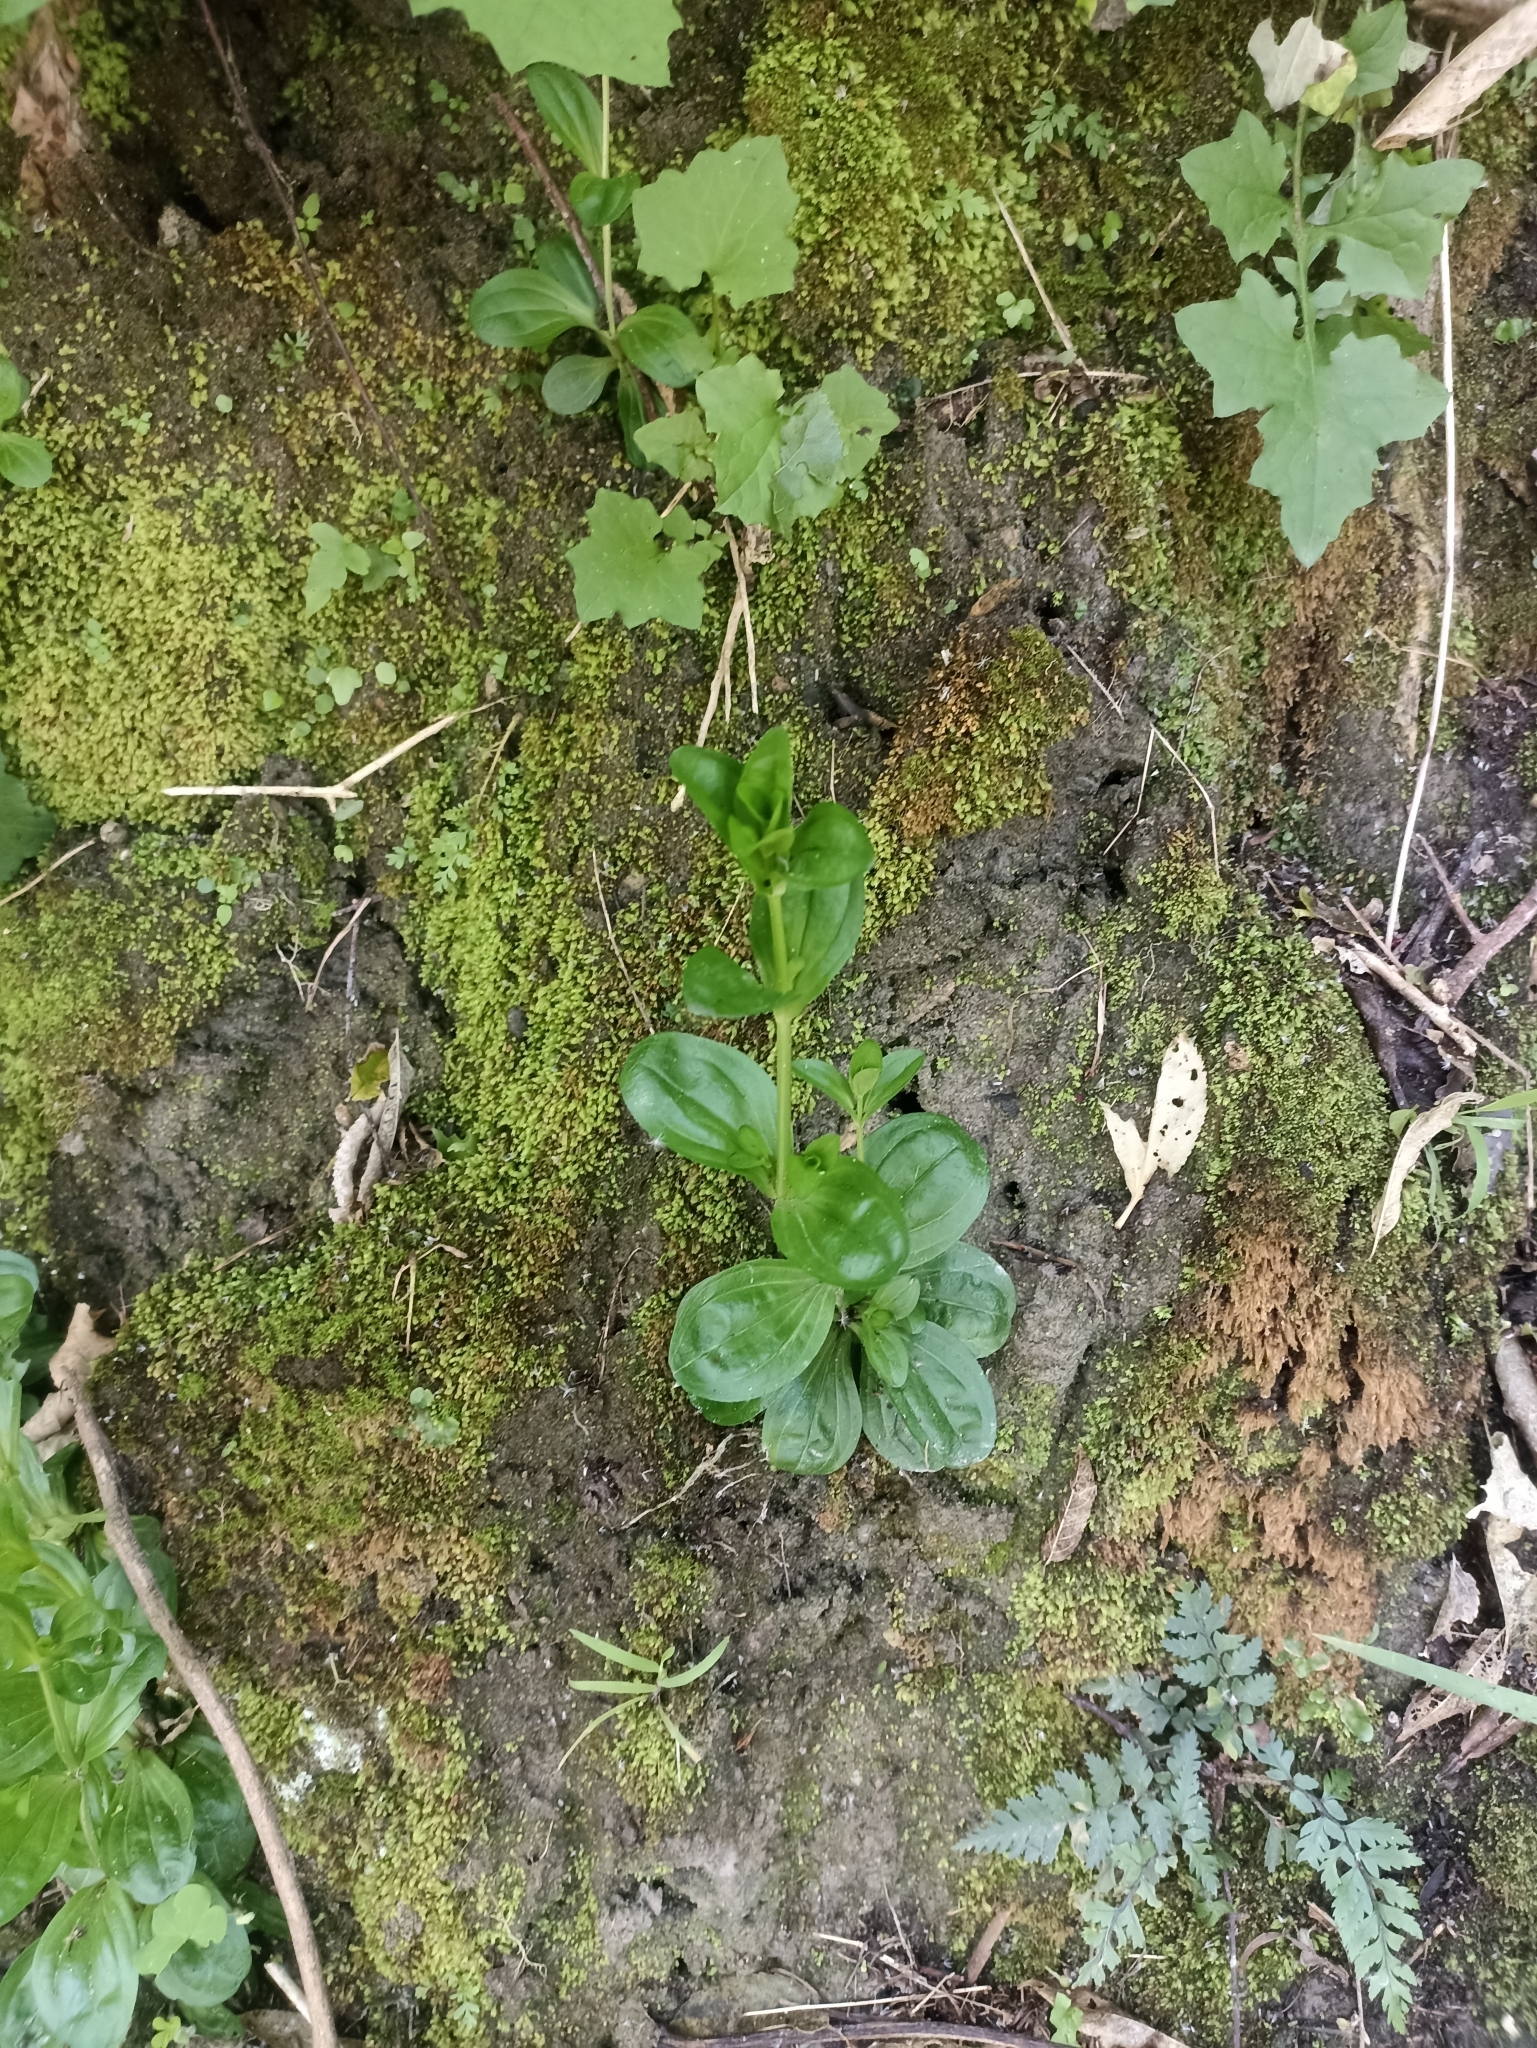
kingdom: Plantae
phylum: Tracheophyta
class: Magnoliopsida
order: Gentianales
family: Gentianaceae
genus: Centaurium
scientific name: Centaurium erythraea
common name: Common centaury
